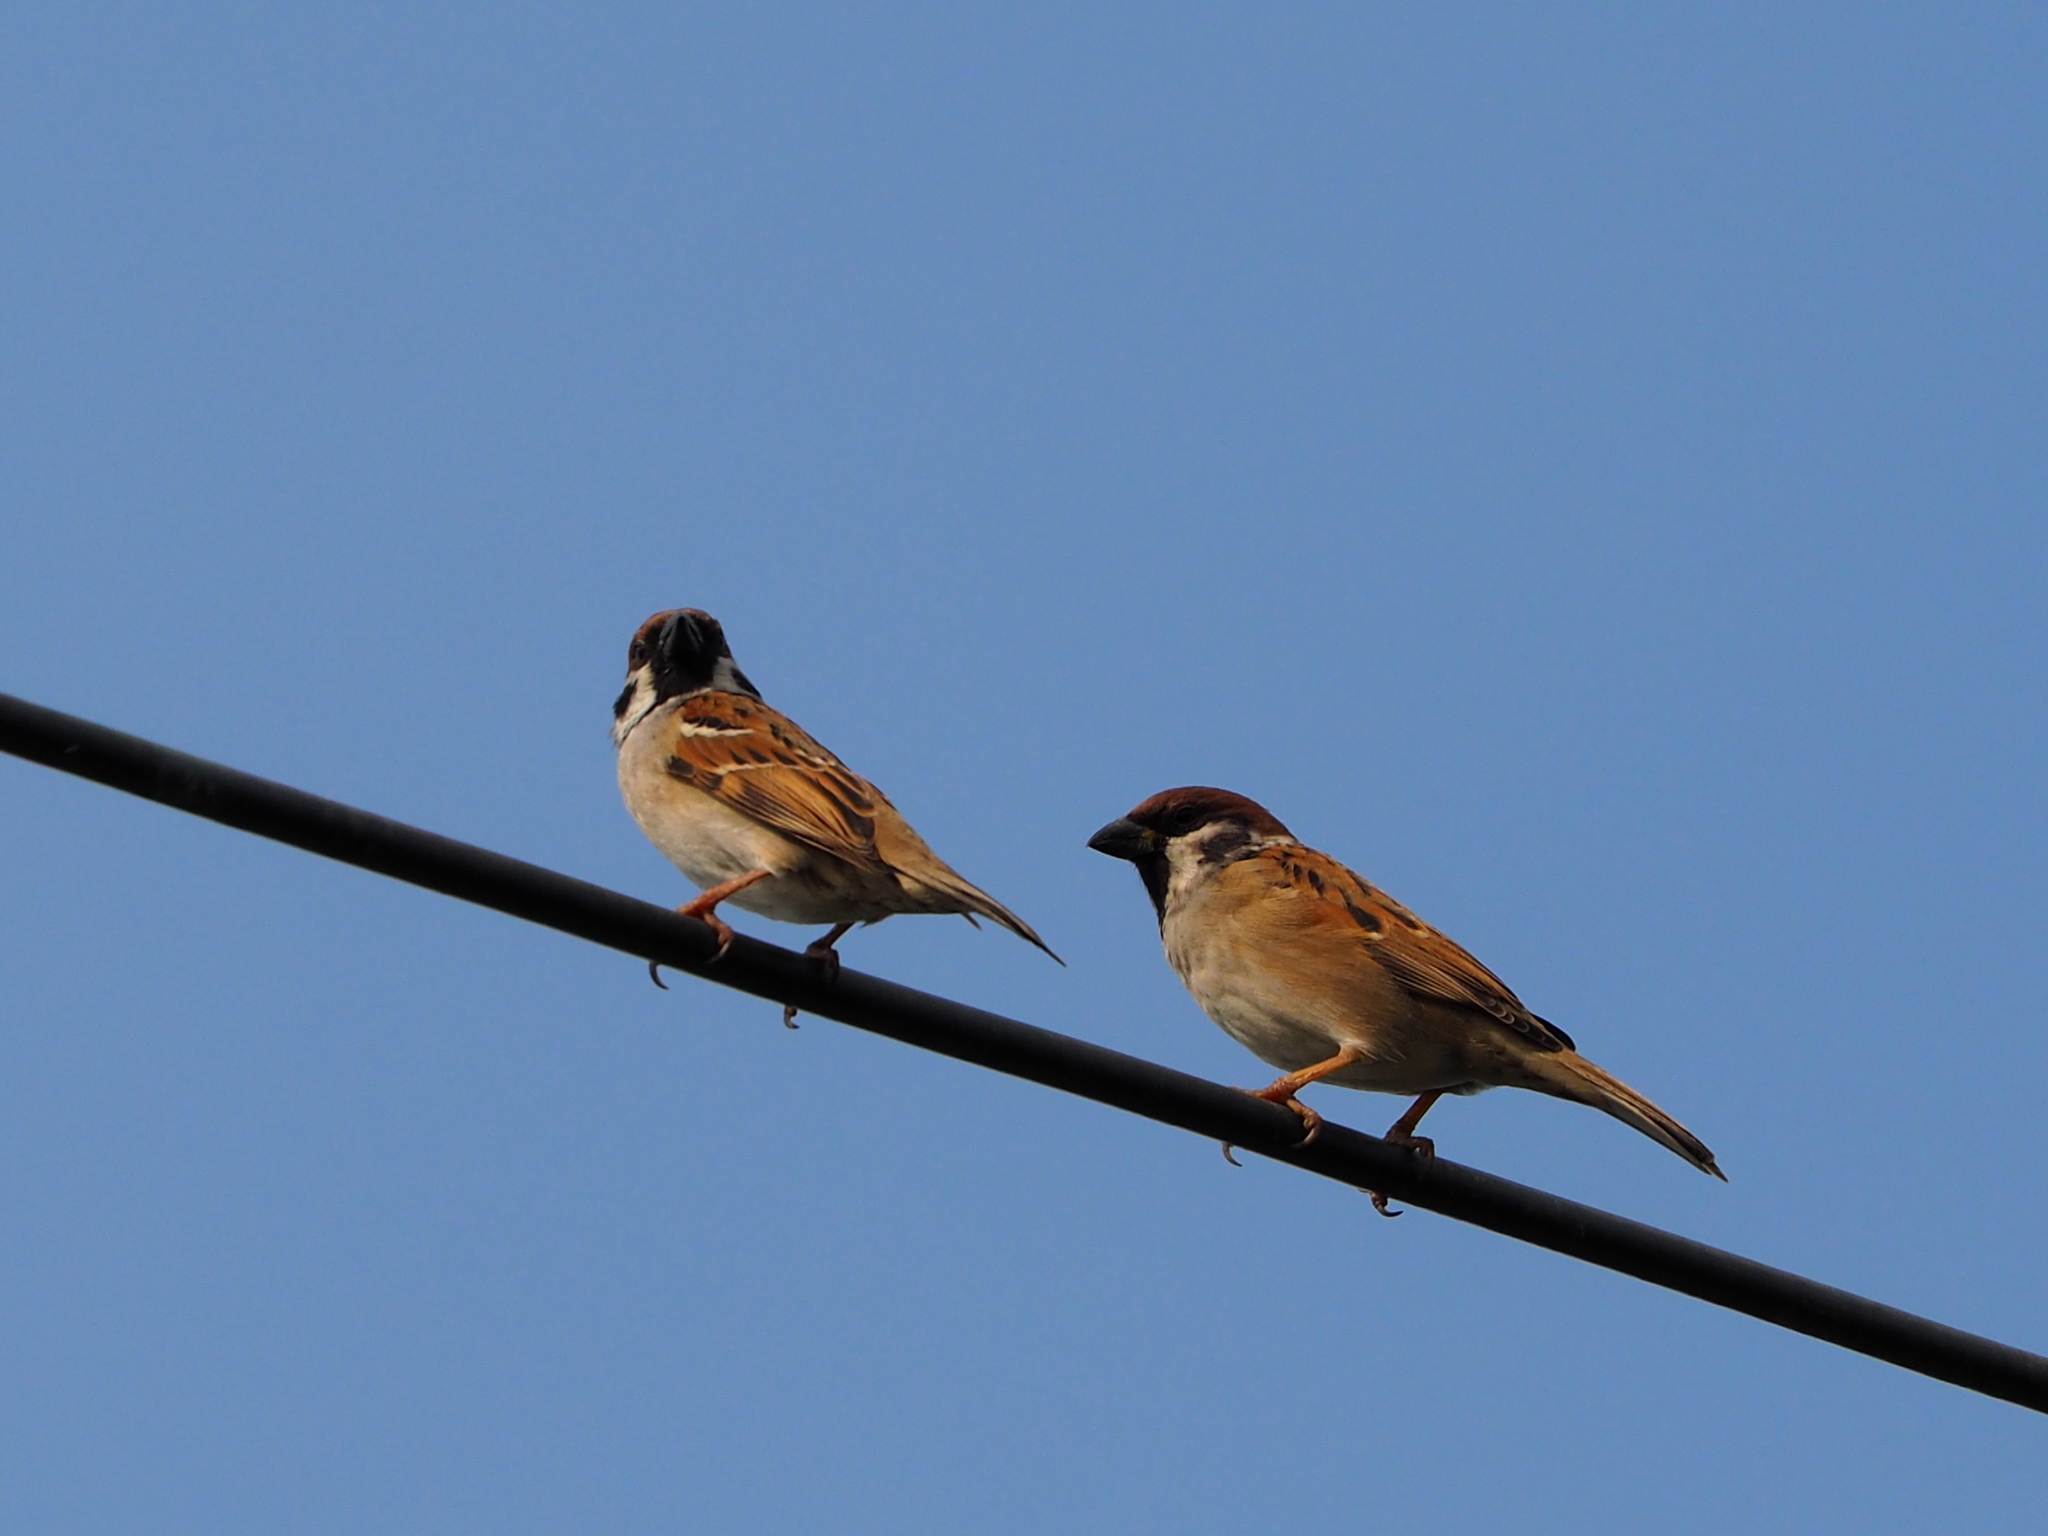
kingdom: Animalia
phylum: Chordata
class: Aves
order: Passeriformes
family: Passeridae
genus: Passer
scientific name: Passer montanus
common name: Eurasian tree sparrow
